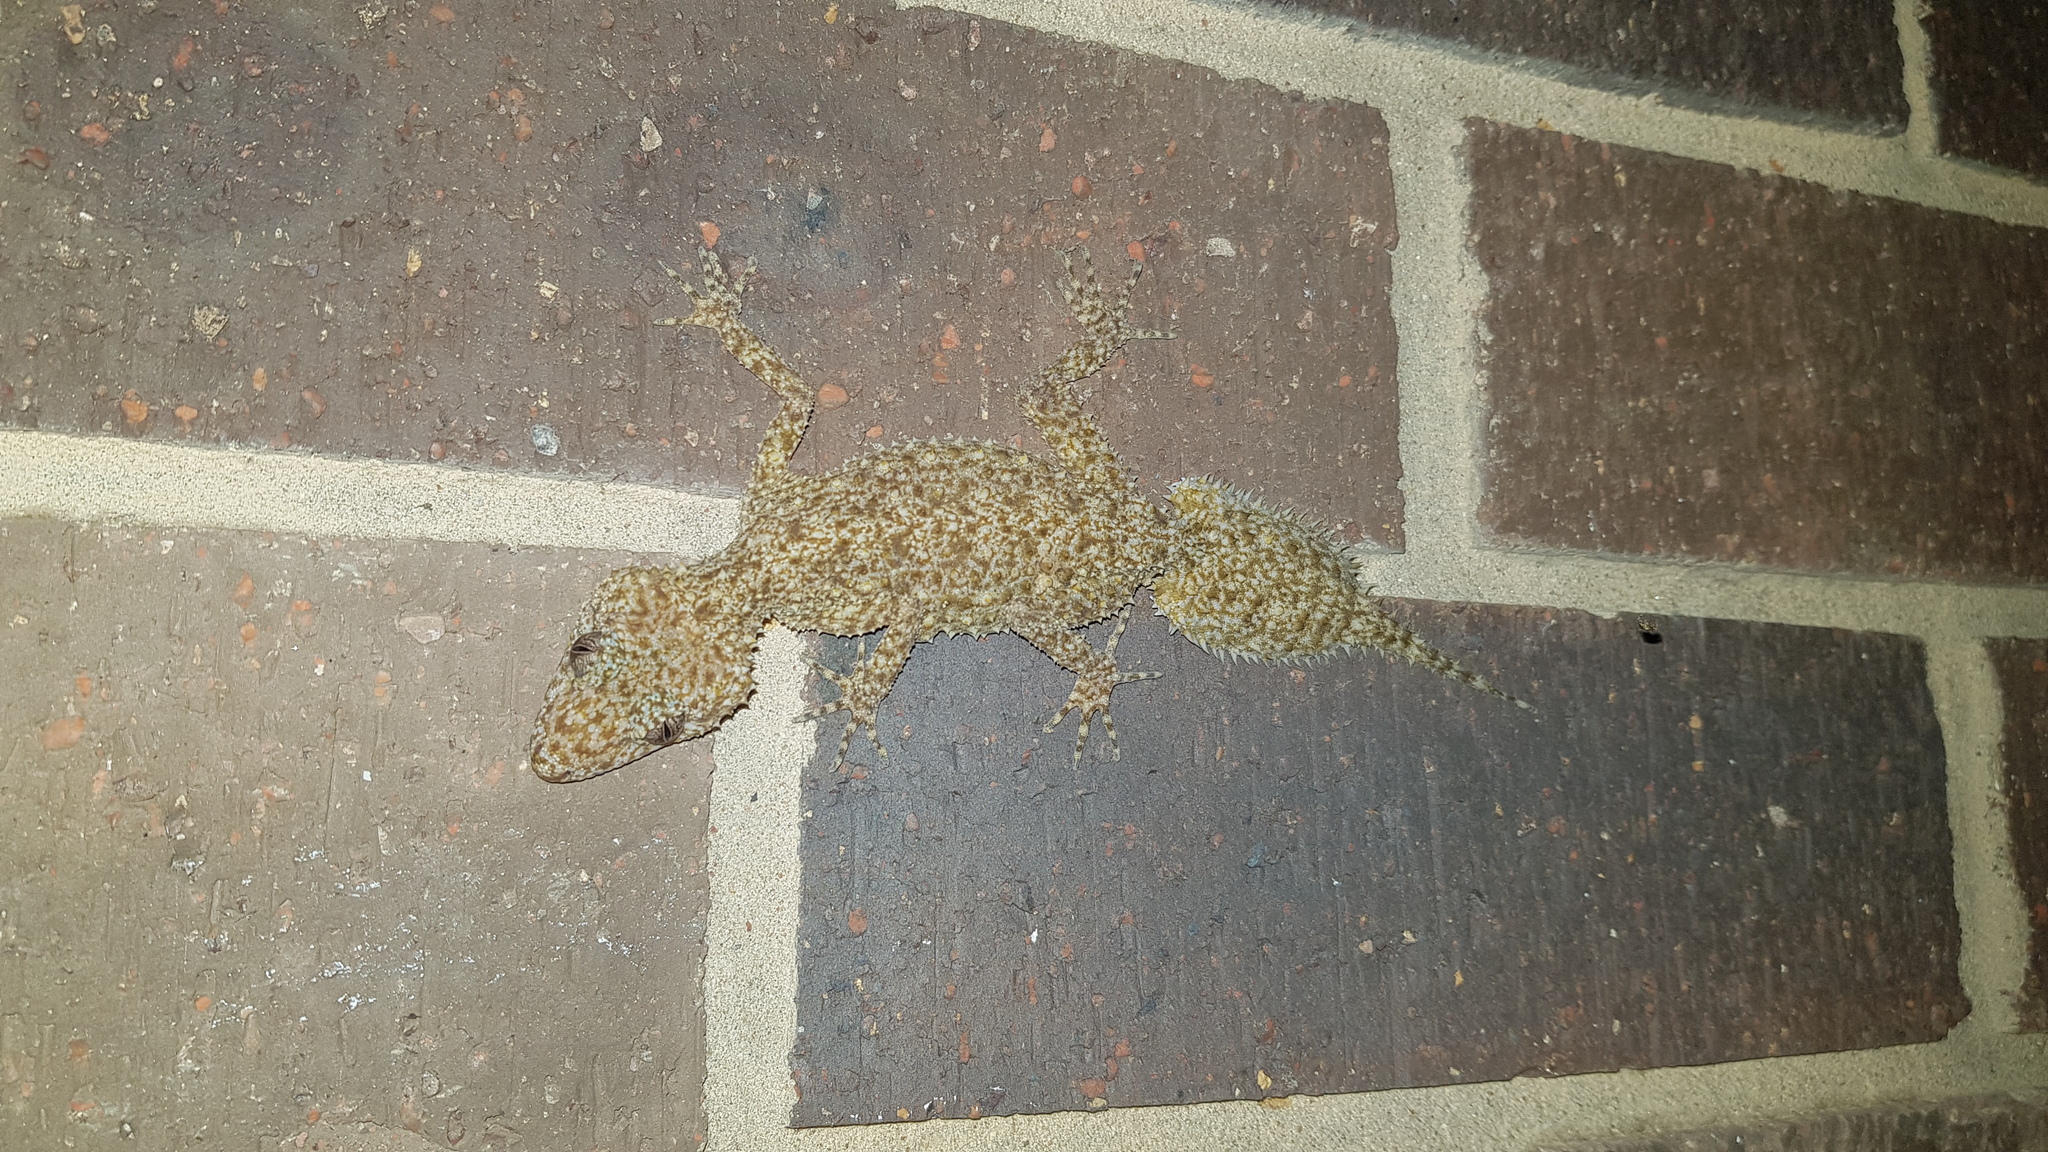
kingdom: Animalia
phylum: Chordata
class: Squamata
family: Carphodactylidae
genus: Phyllurus
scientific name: Phyllurus platurus
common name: Broad-tailed gecko
